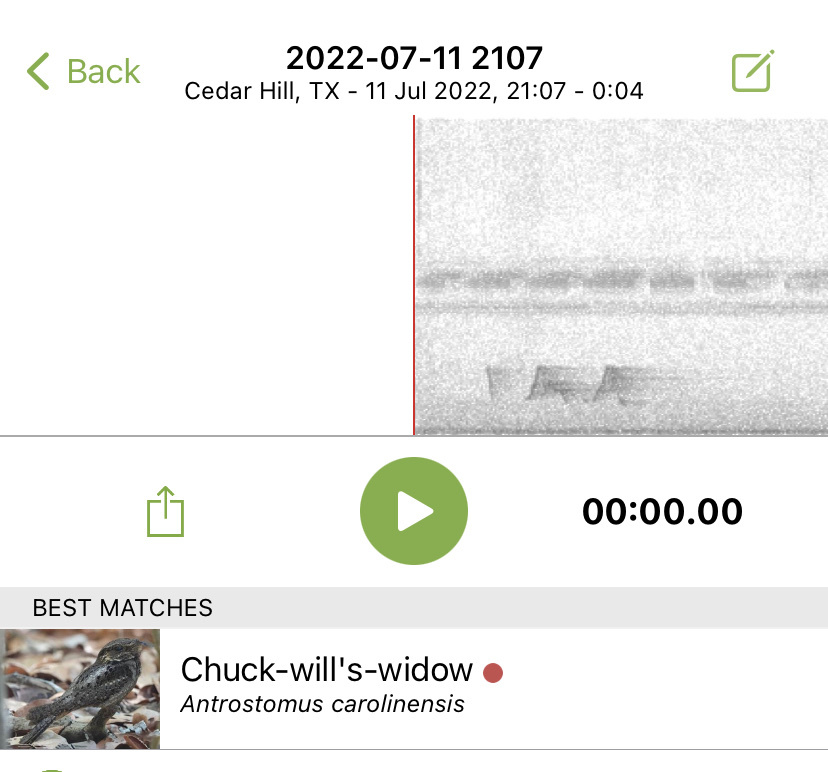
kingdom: Animalia
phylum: Chordata
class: Aves
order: Caprimulgiformes
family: Caprimulgidae
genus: Antrostomus
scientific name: Antrostomus carolinensis
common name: Chuck-will's-widow
